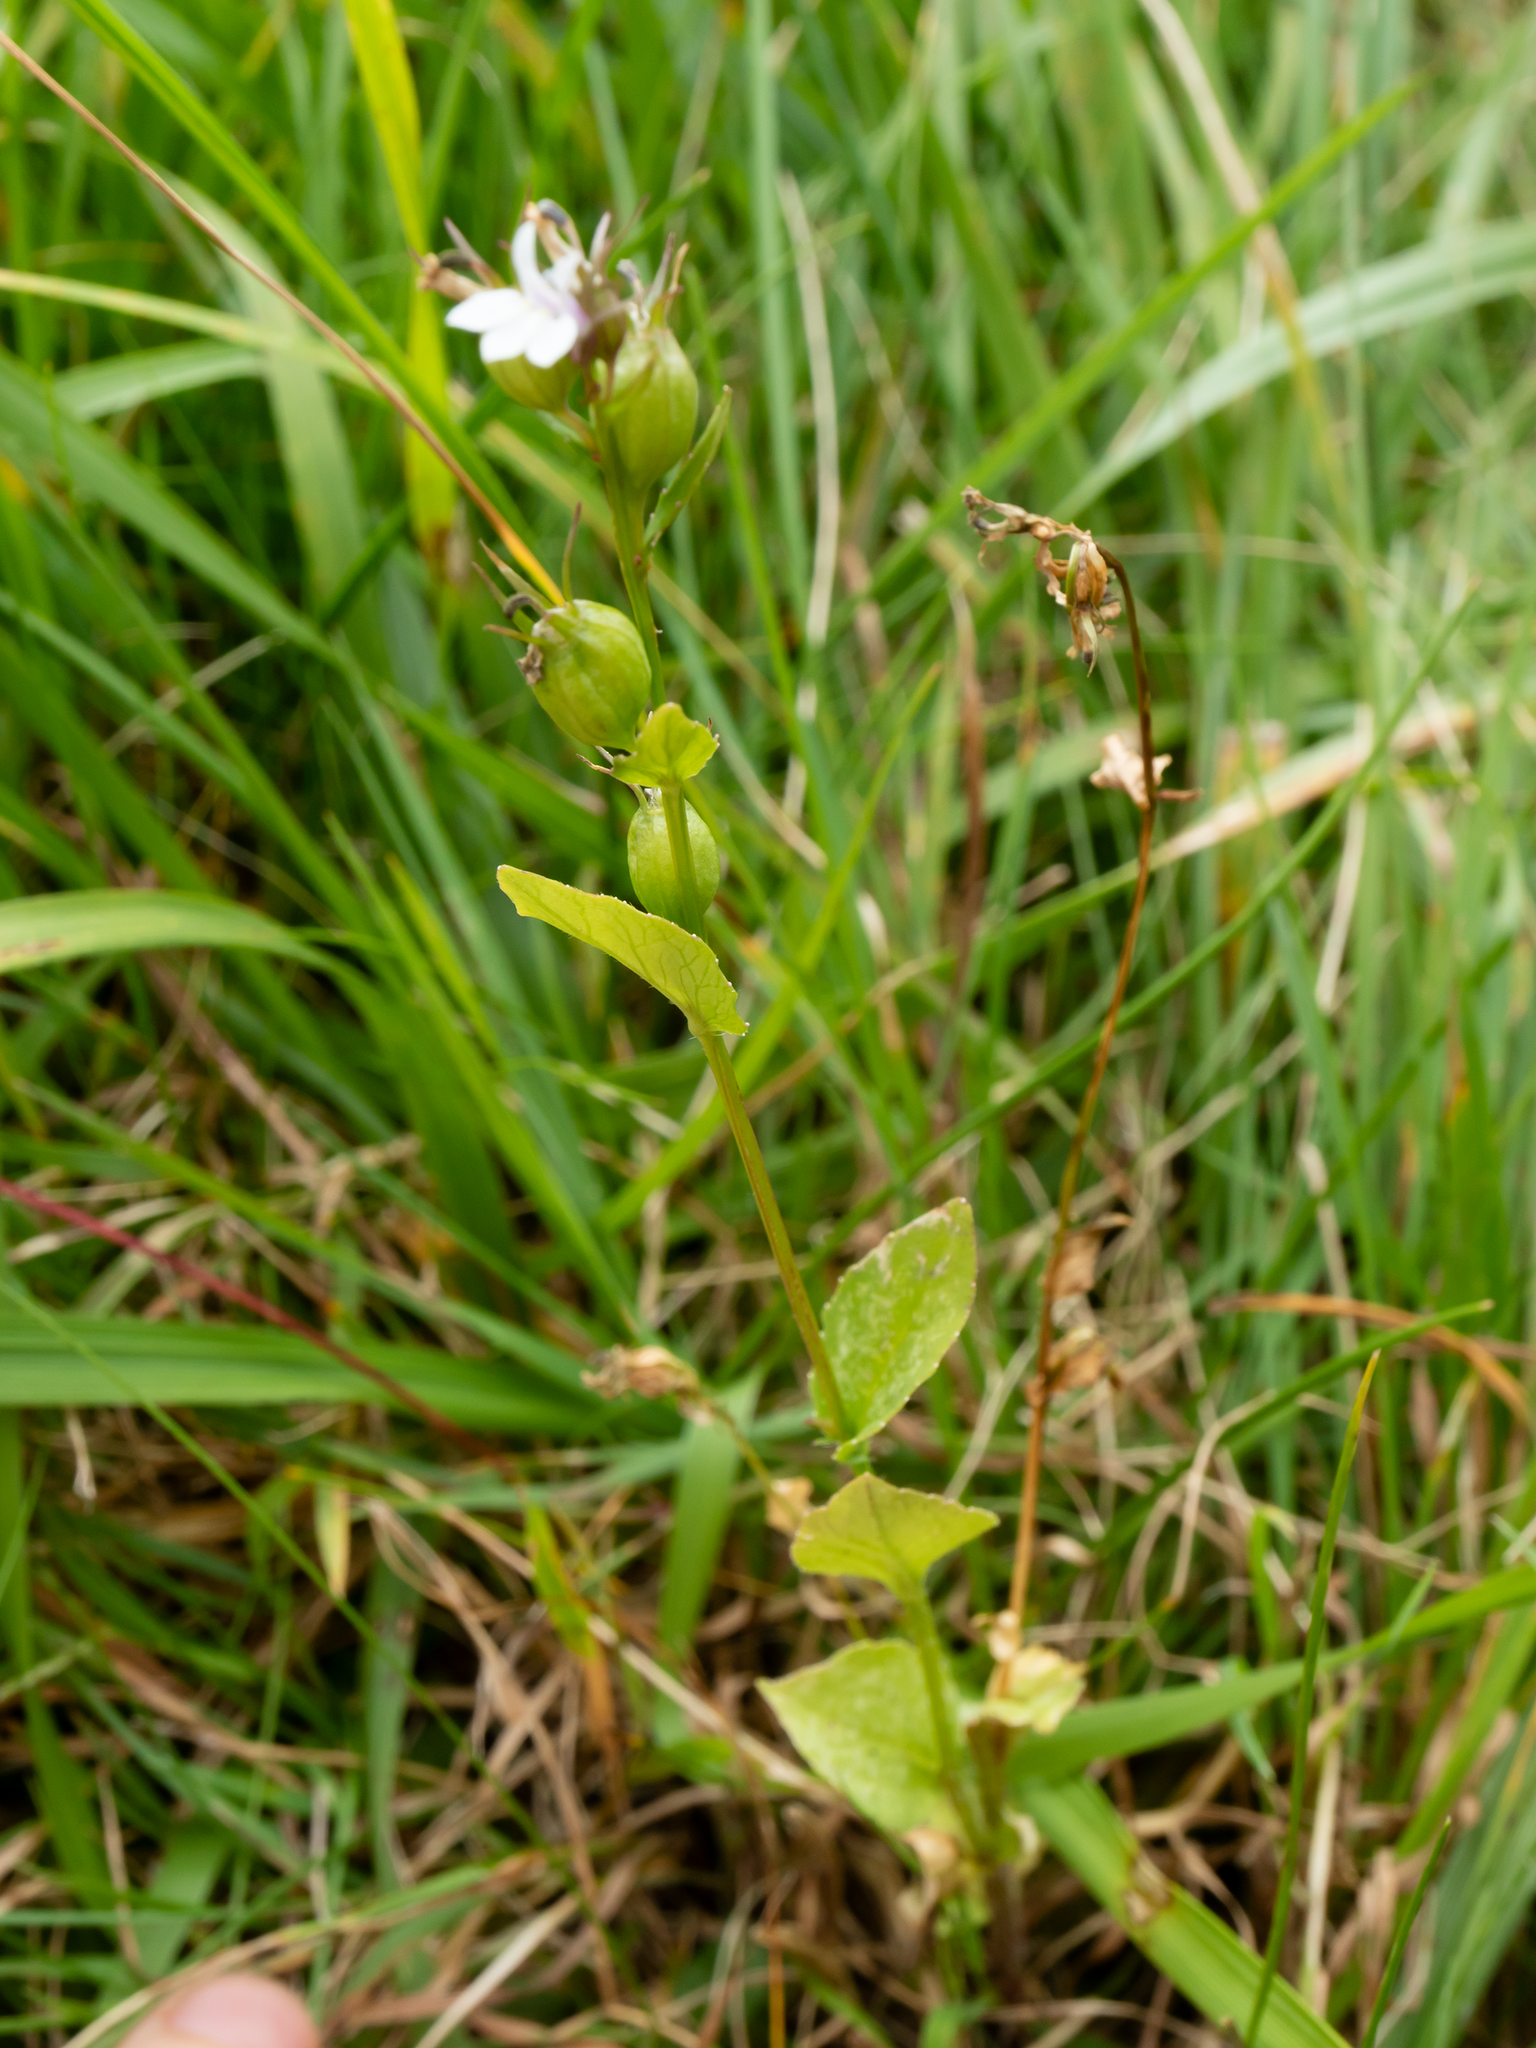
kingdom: Plantae
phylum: Tracheophyta
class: Magnoliopsida
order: Asterales
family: Campanulaceae
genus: Lobelia
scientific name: Lobelia inflata
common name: Indian tobacco
